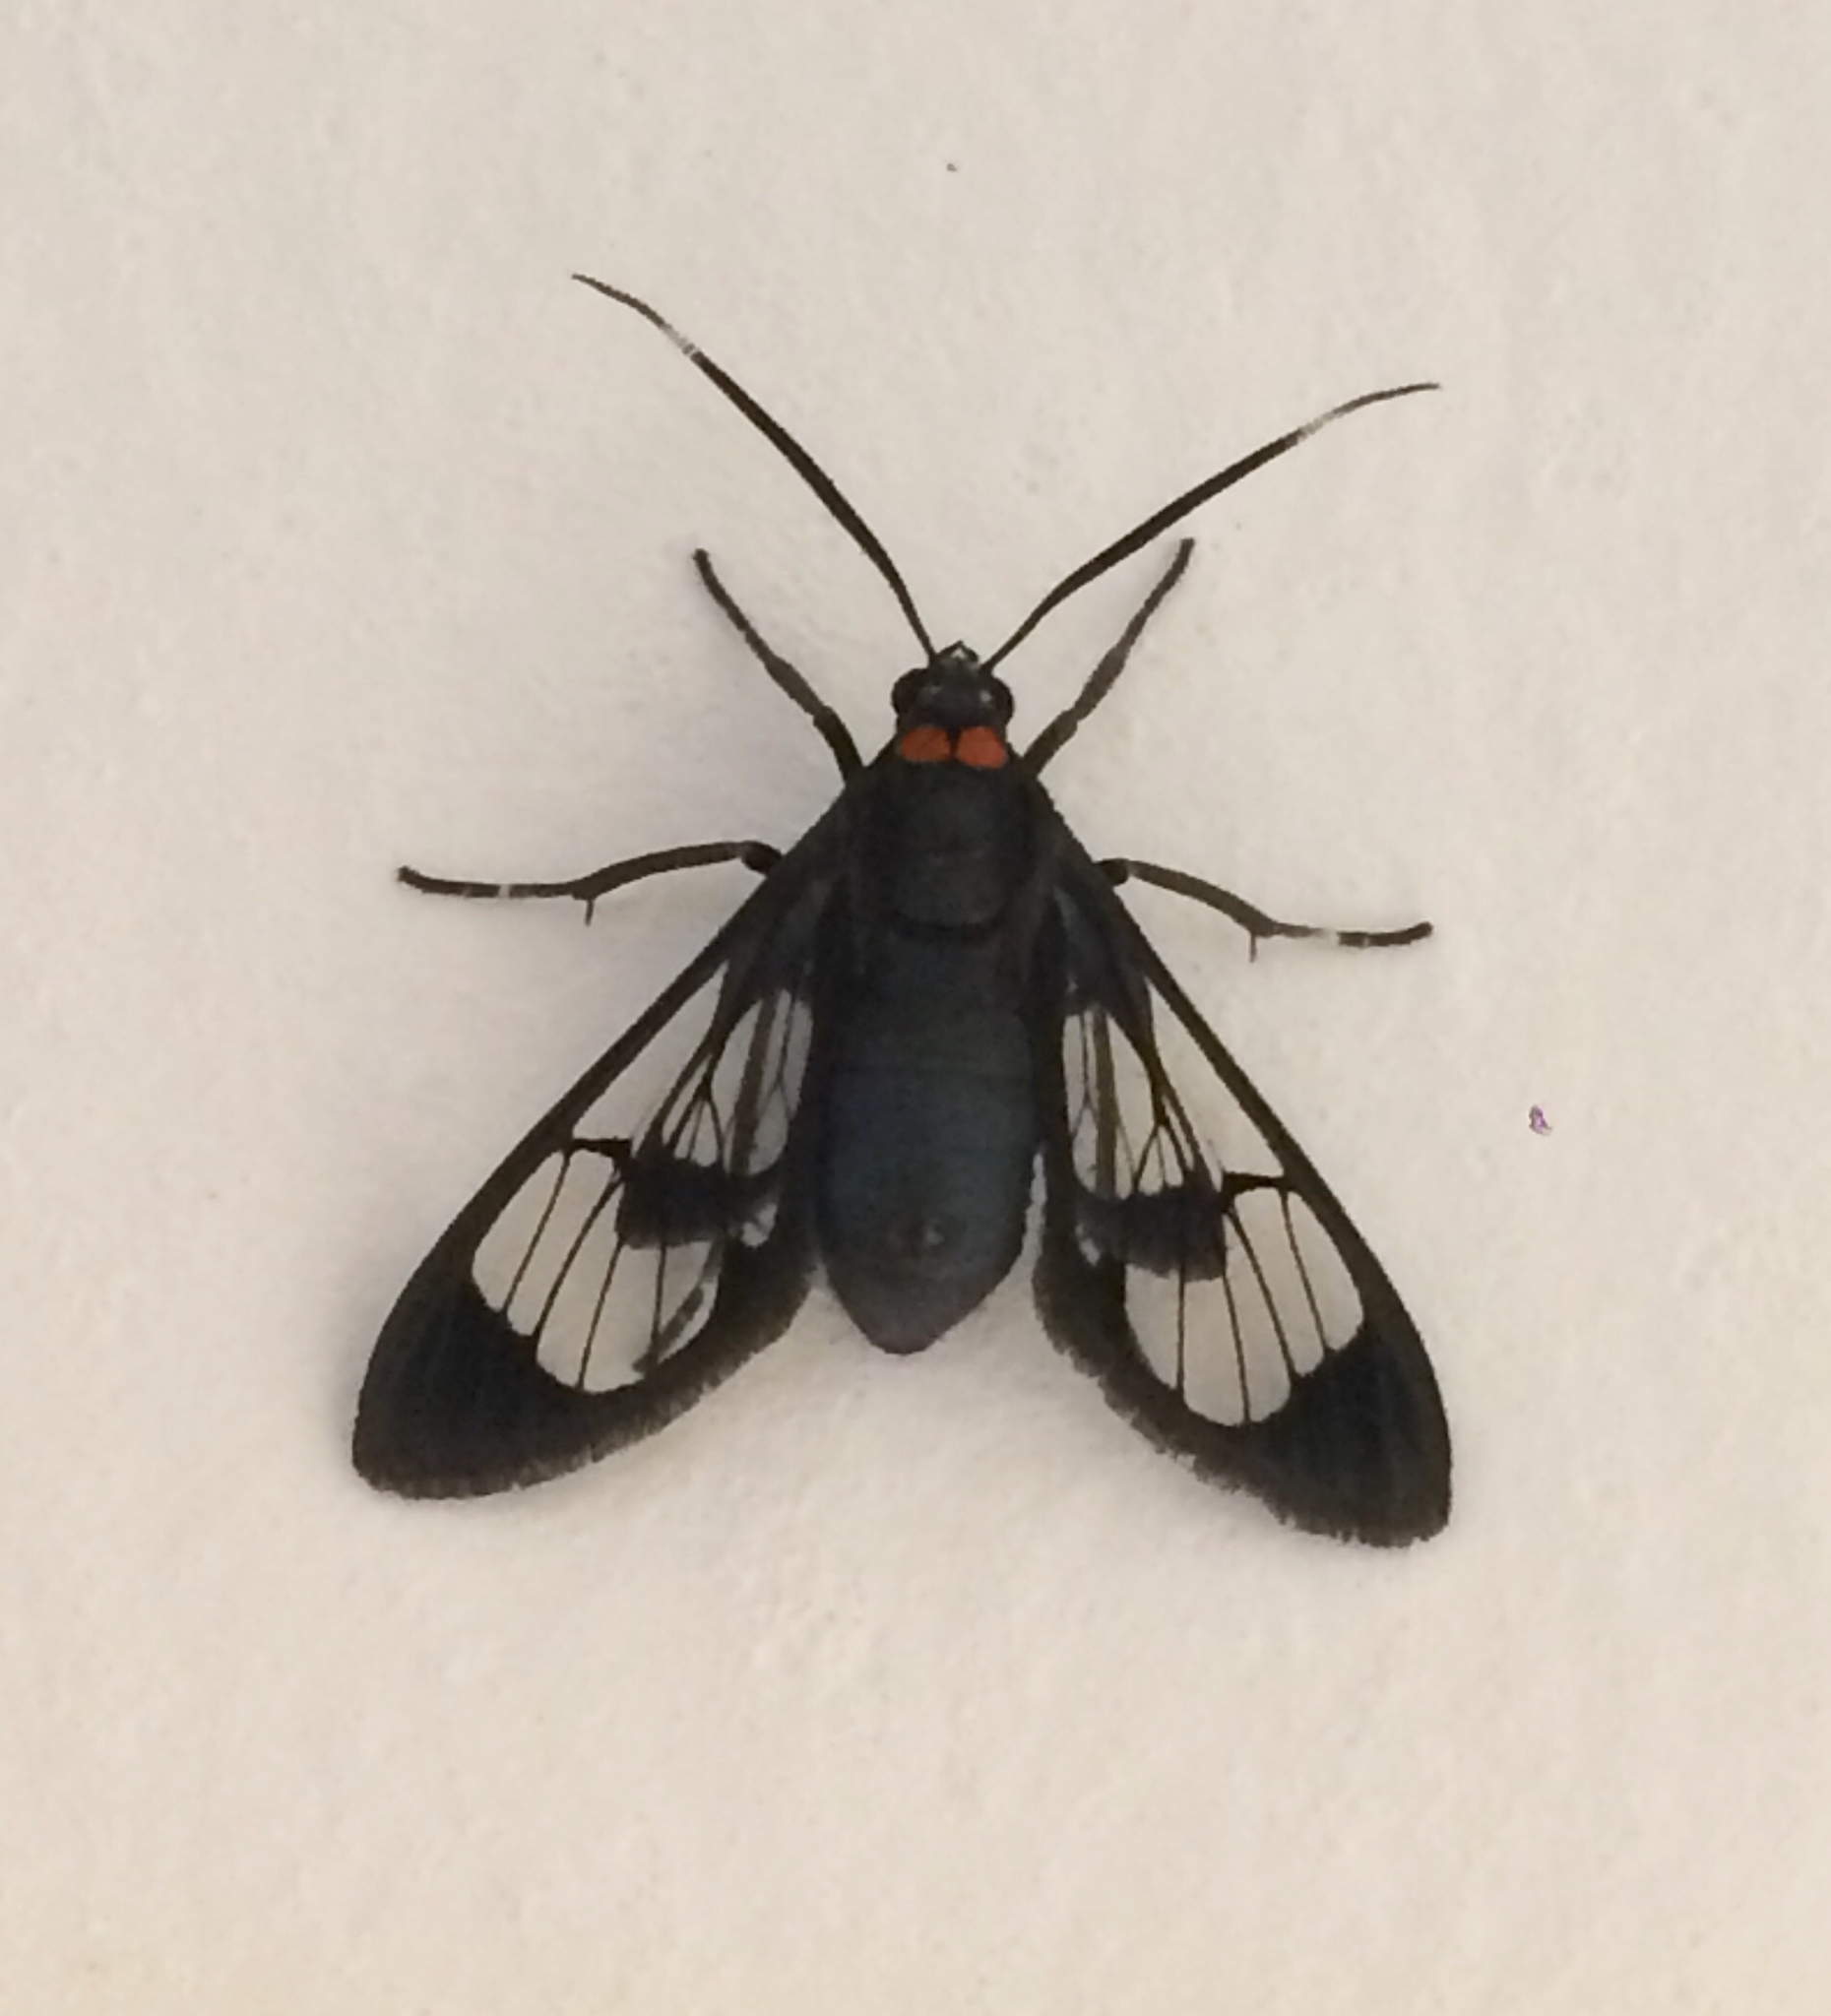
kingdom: Animalia
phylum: Arthropoda
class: Insecta
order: Lepidoptera
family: Erebidae
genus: Loxophlebia
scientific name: Loxophlebia geminata
